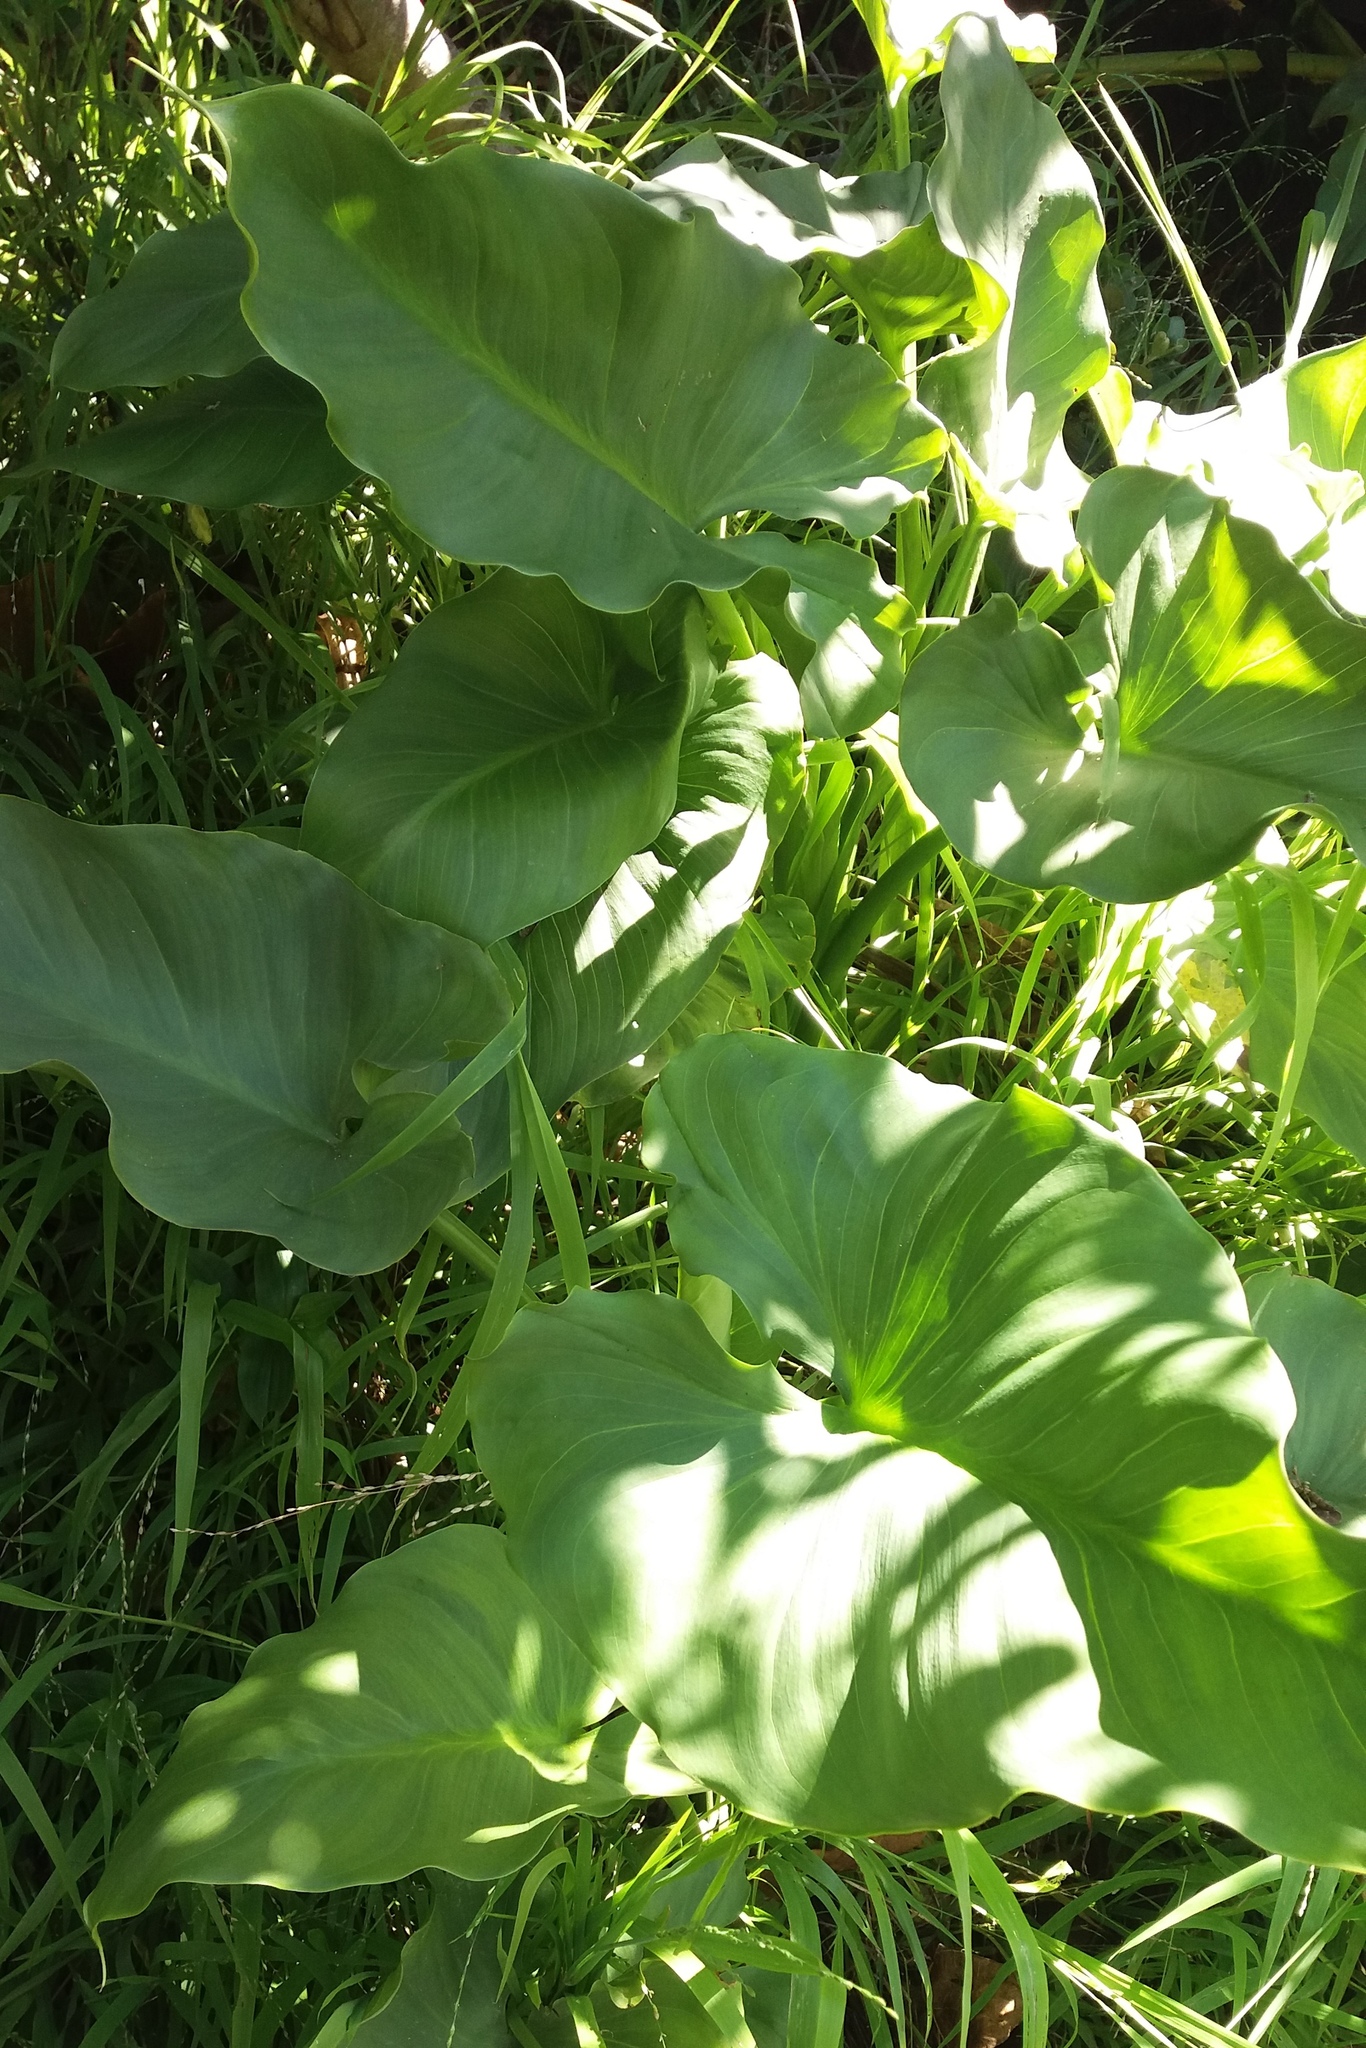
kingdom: Plantae
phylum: Tracheophyta
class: Liliopsida
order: Alismatales
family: Araceae
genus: Zantedeschia
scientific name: Zantedeschia aethiopica
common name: Altar-lily
